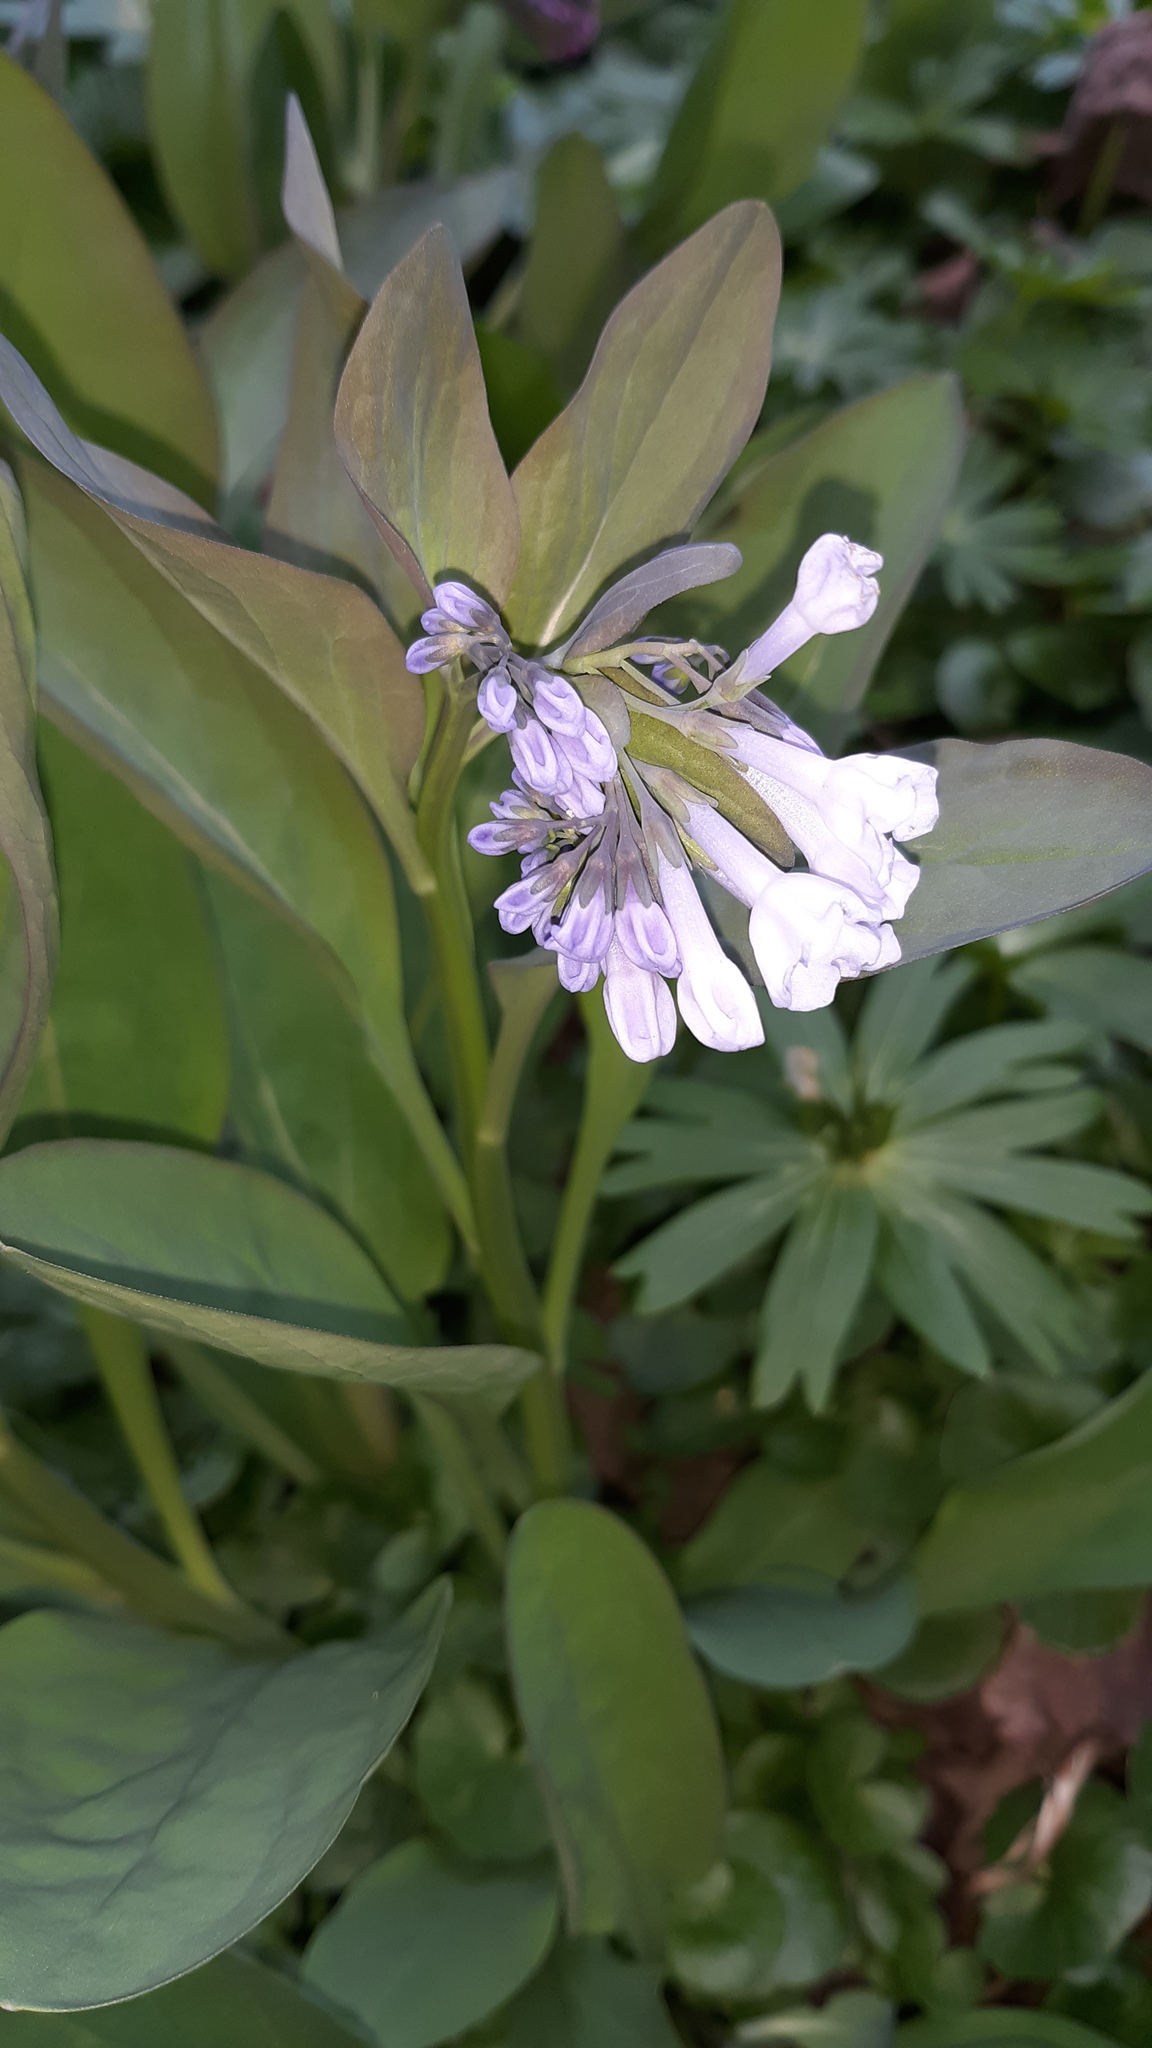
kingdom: Plantae
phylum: Tracheophyta
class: Magnoliopsida
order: Boraginales
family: Boraginaceae
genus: Mertensia
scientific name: Mertensia virginica
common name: Virginia bluebells
